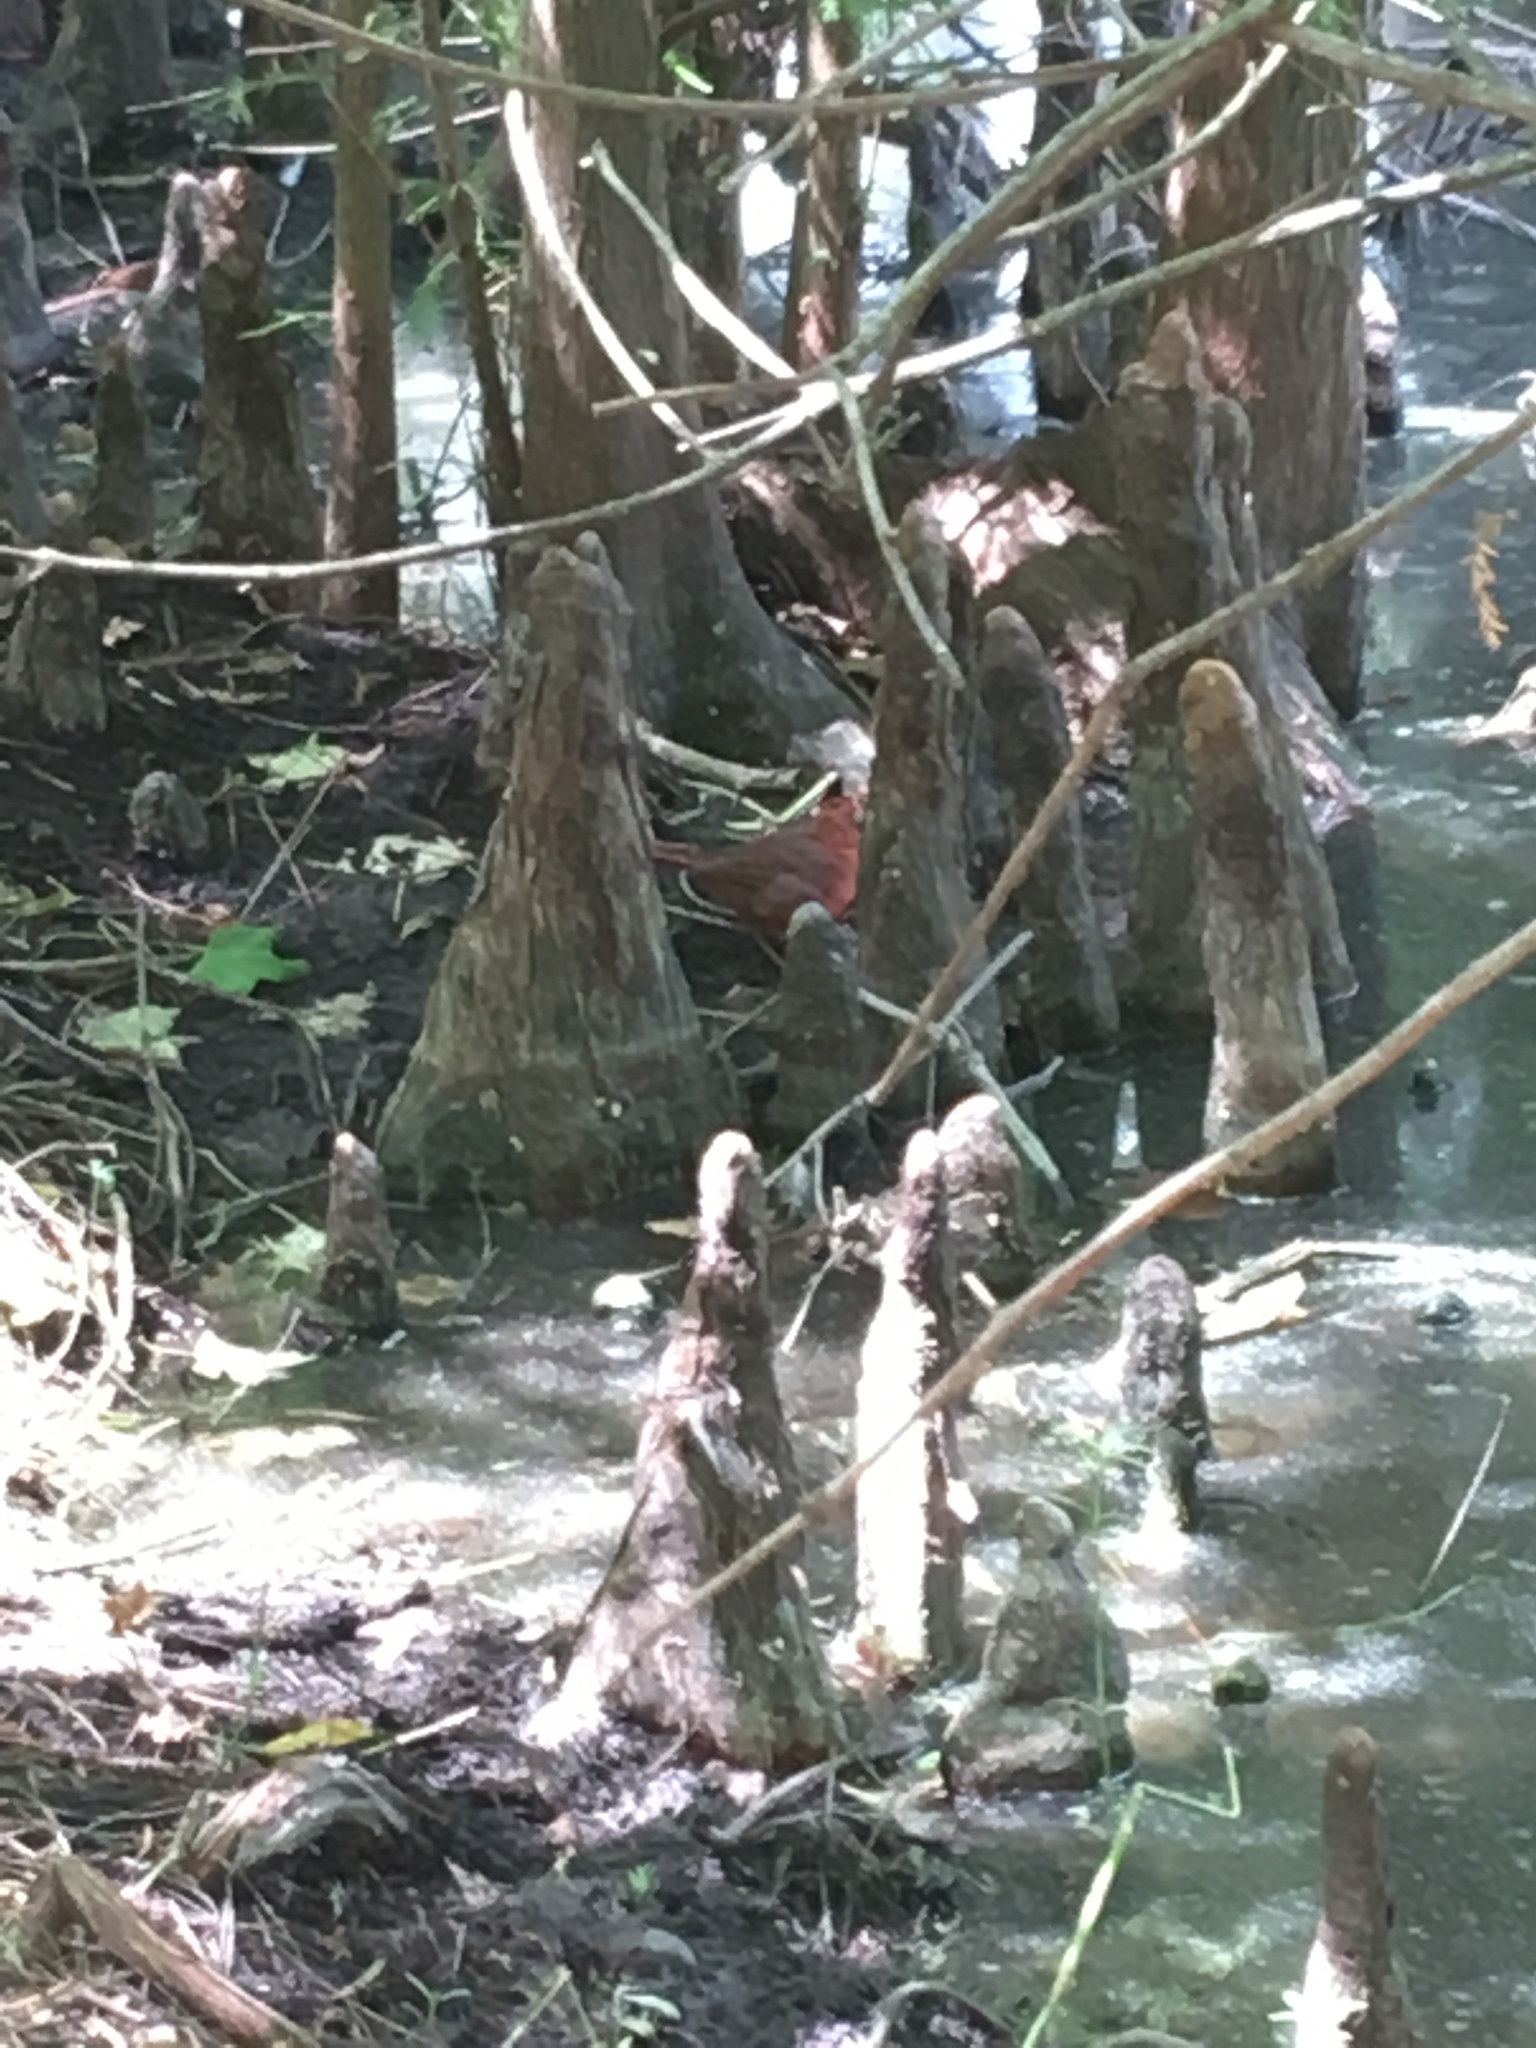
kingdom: Animalia
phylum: Chordata
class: Aves
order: Passeriformes
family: Cardinalidae
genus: Cardinalis
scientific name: Cardinalis cardinalis
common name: Northern cardinal
